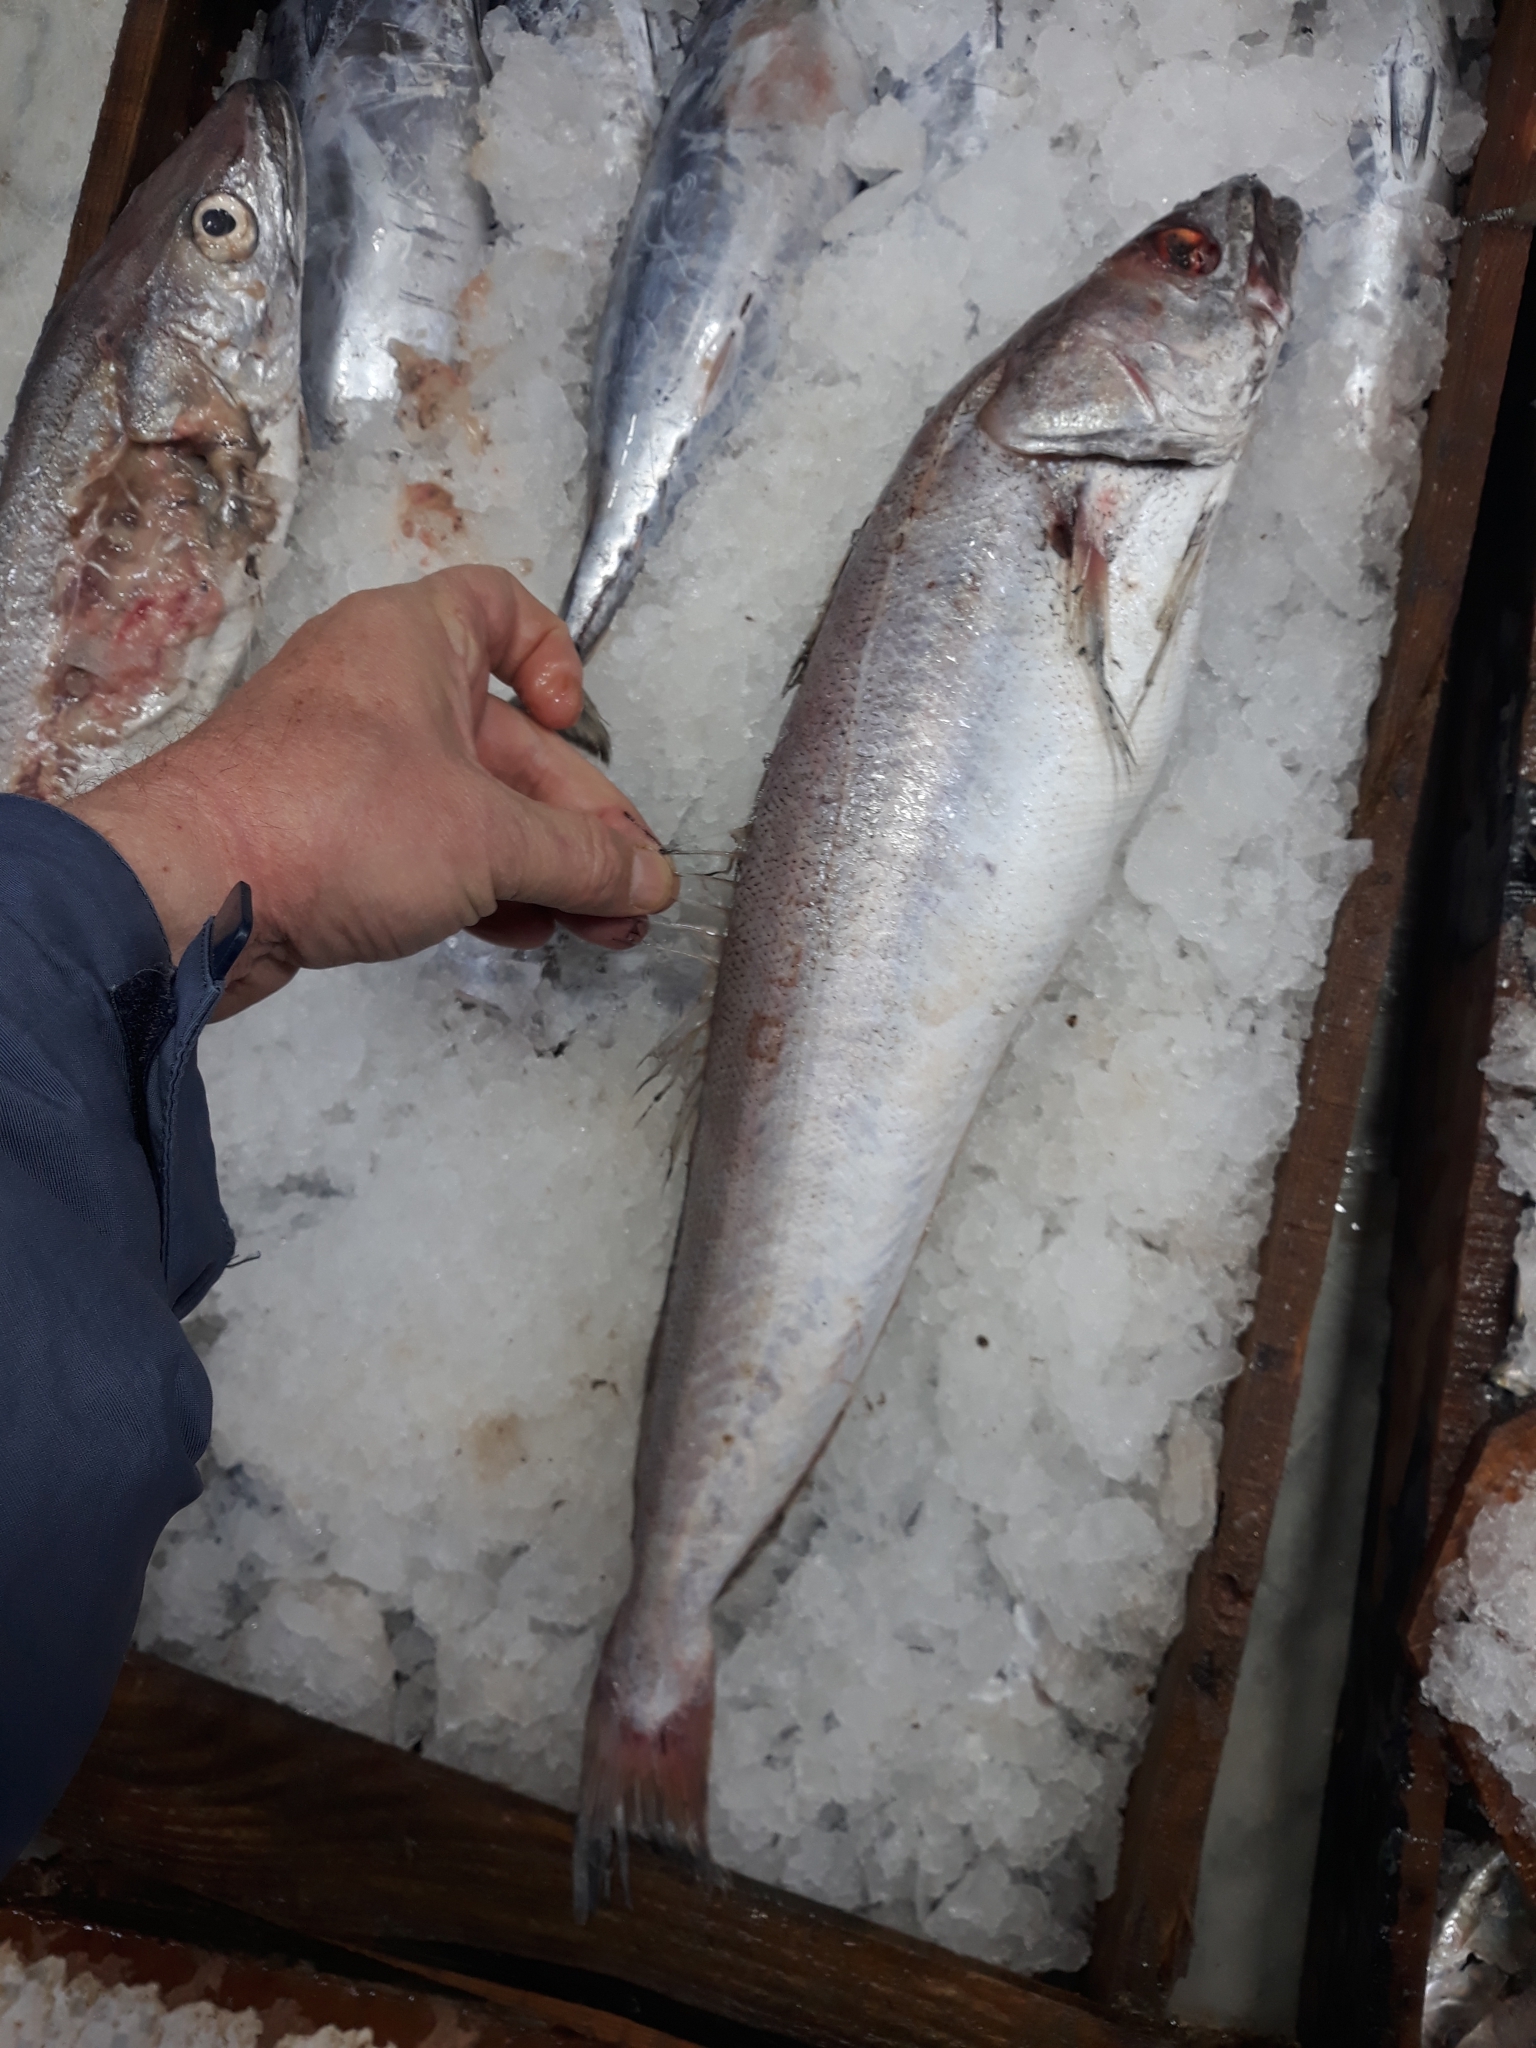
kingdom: Animalia
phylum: Chordata
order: Gadiformes
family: Merlucciidae
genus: Merluccius
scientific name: Merluccius merluccius
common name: European hake
